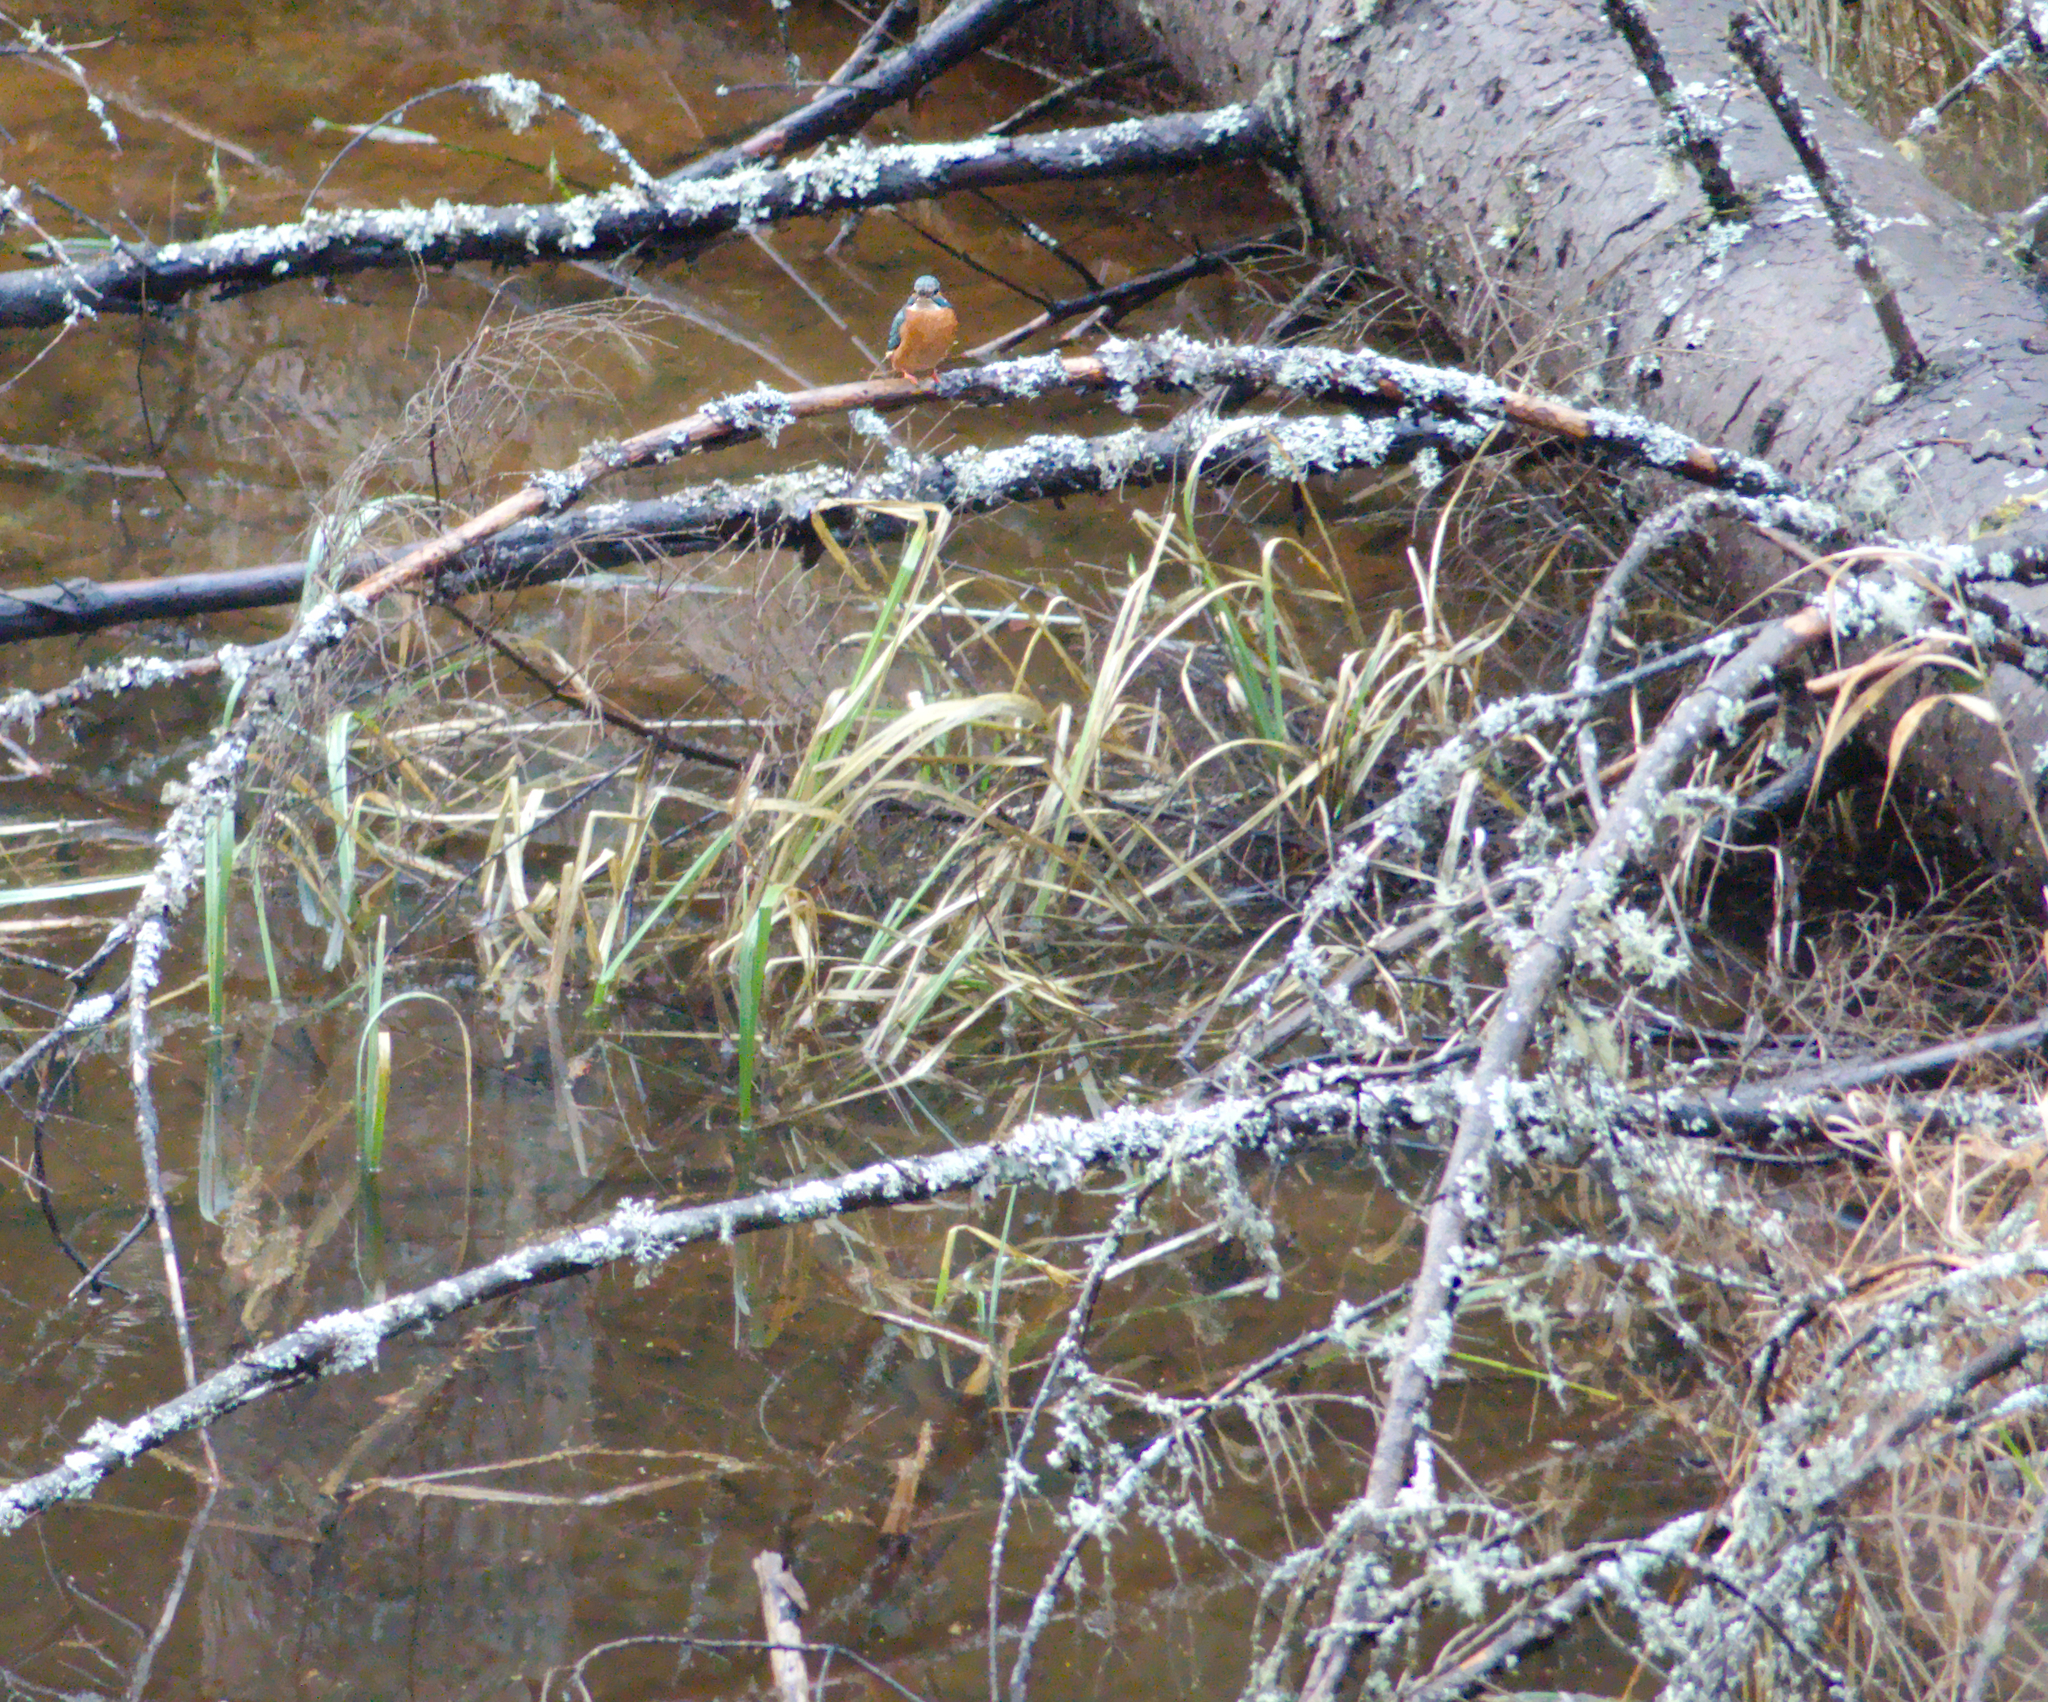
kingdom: Animalia
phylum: Chordata
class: Aves
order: Coraciiformes
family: Alcedinidae
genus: Alcedo
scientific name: Alcedo atthis
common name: Common kingfisher
